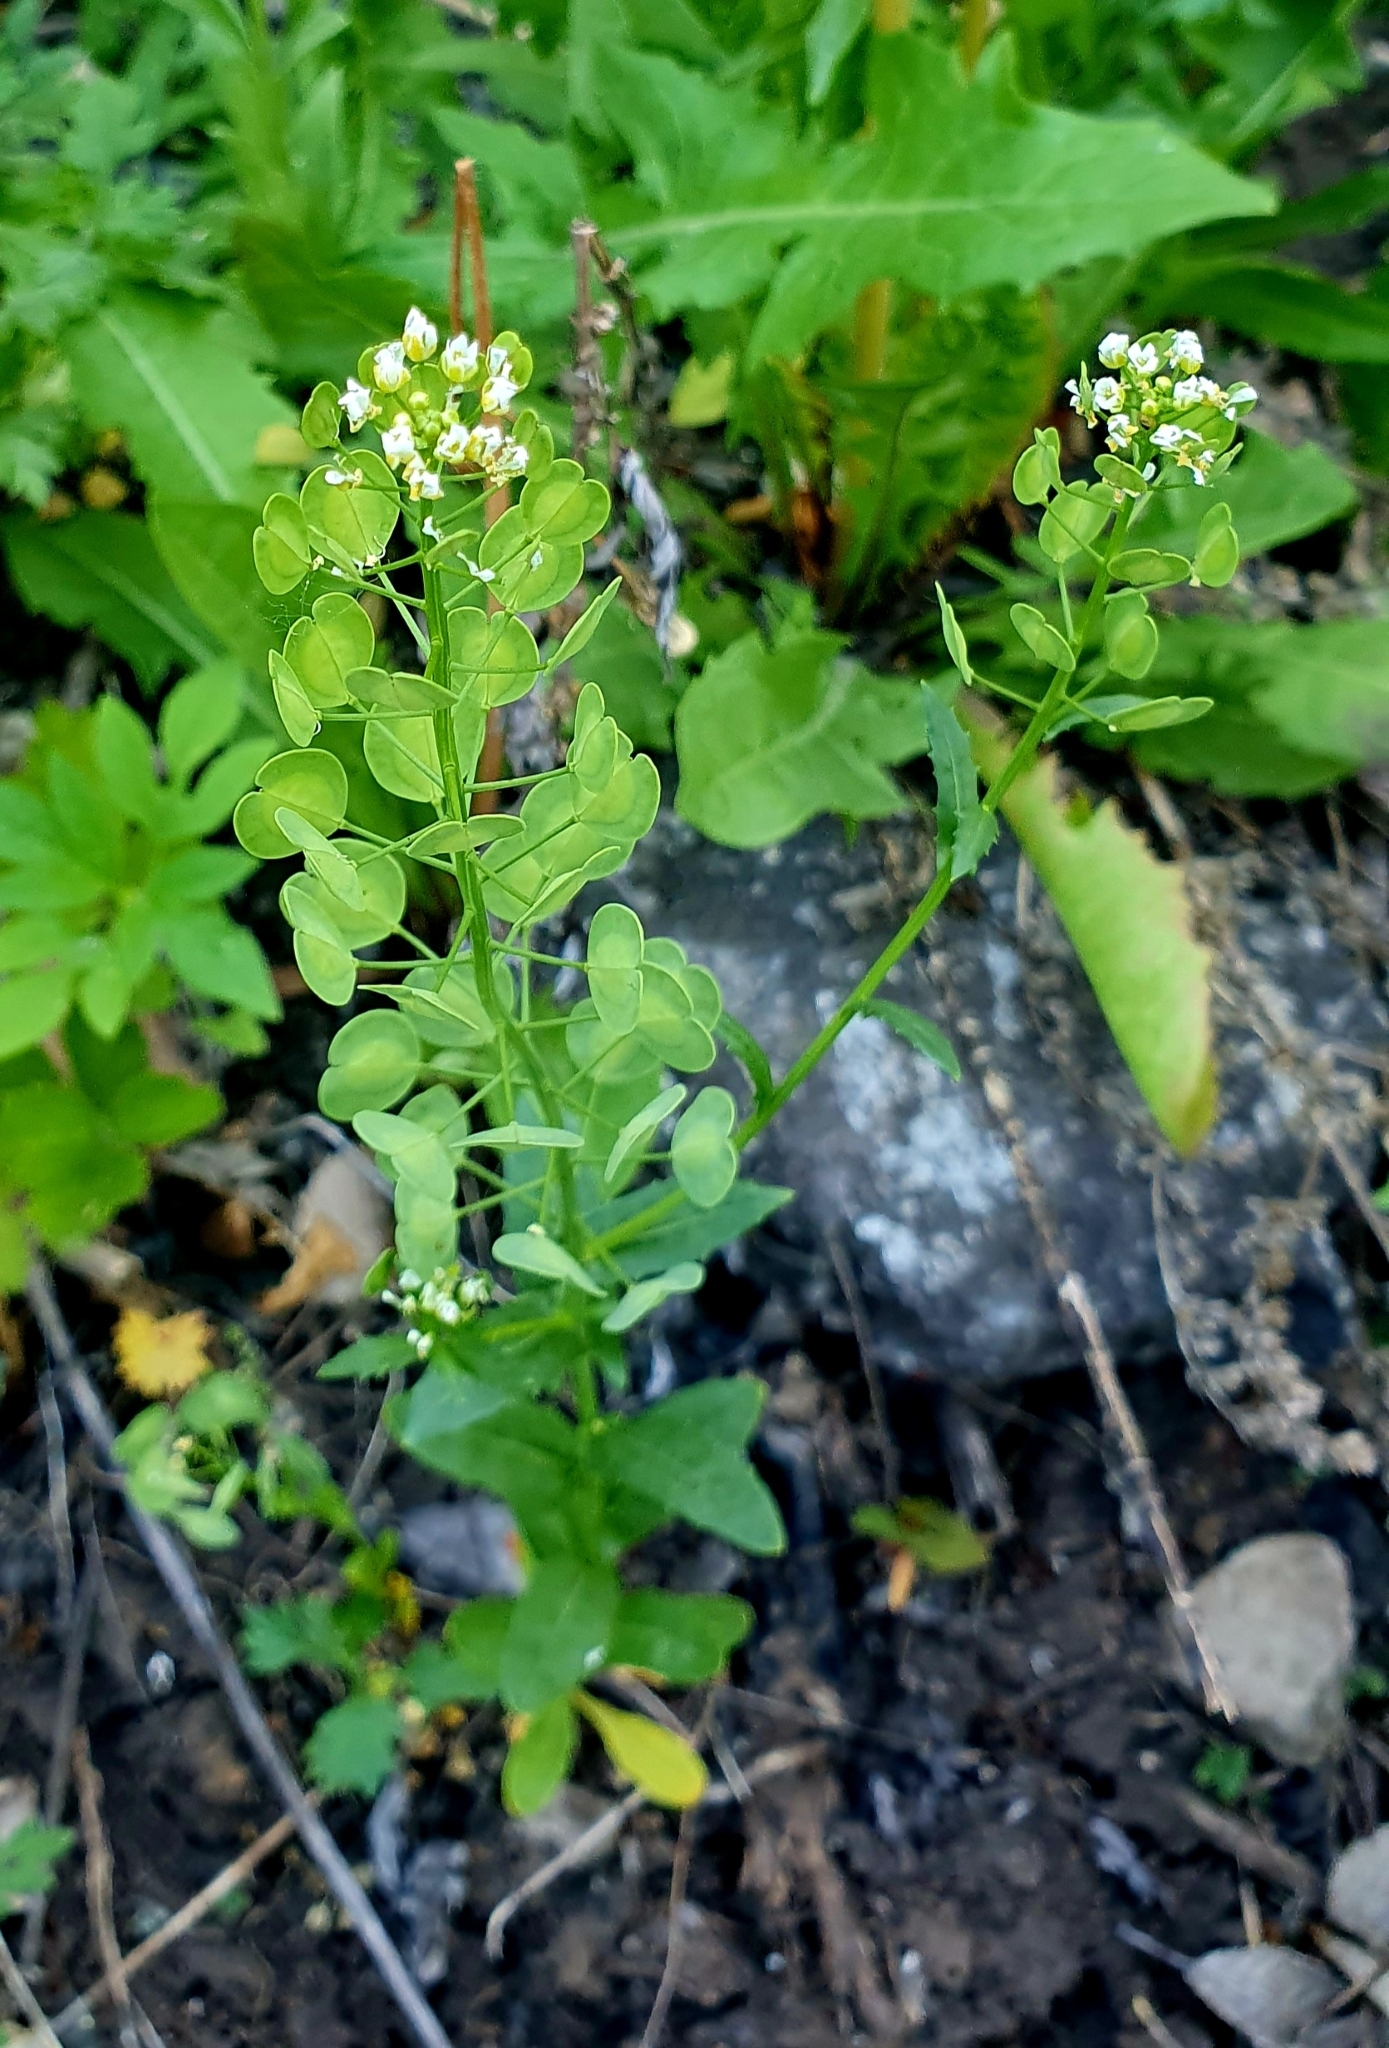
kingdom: Plantae
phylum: Tracheophyta
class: Magnoliopsida
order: Brassicales
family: Brassicaceae
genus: Thlaspi
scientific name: Thlaspi arvense
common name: Field pennycress
